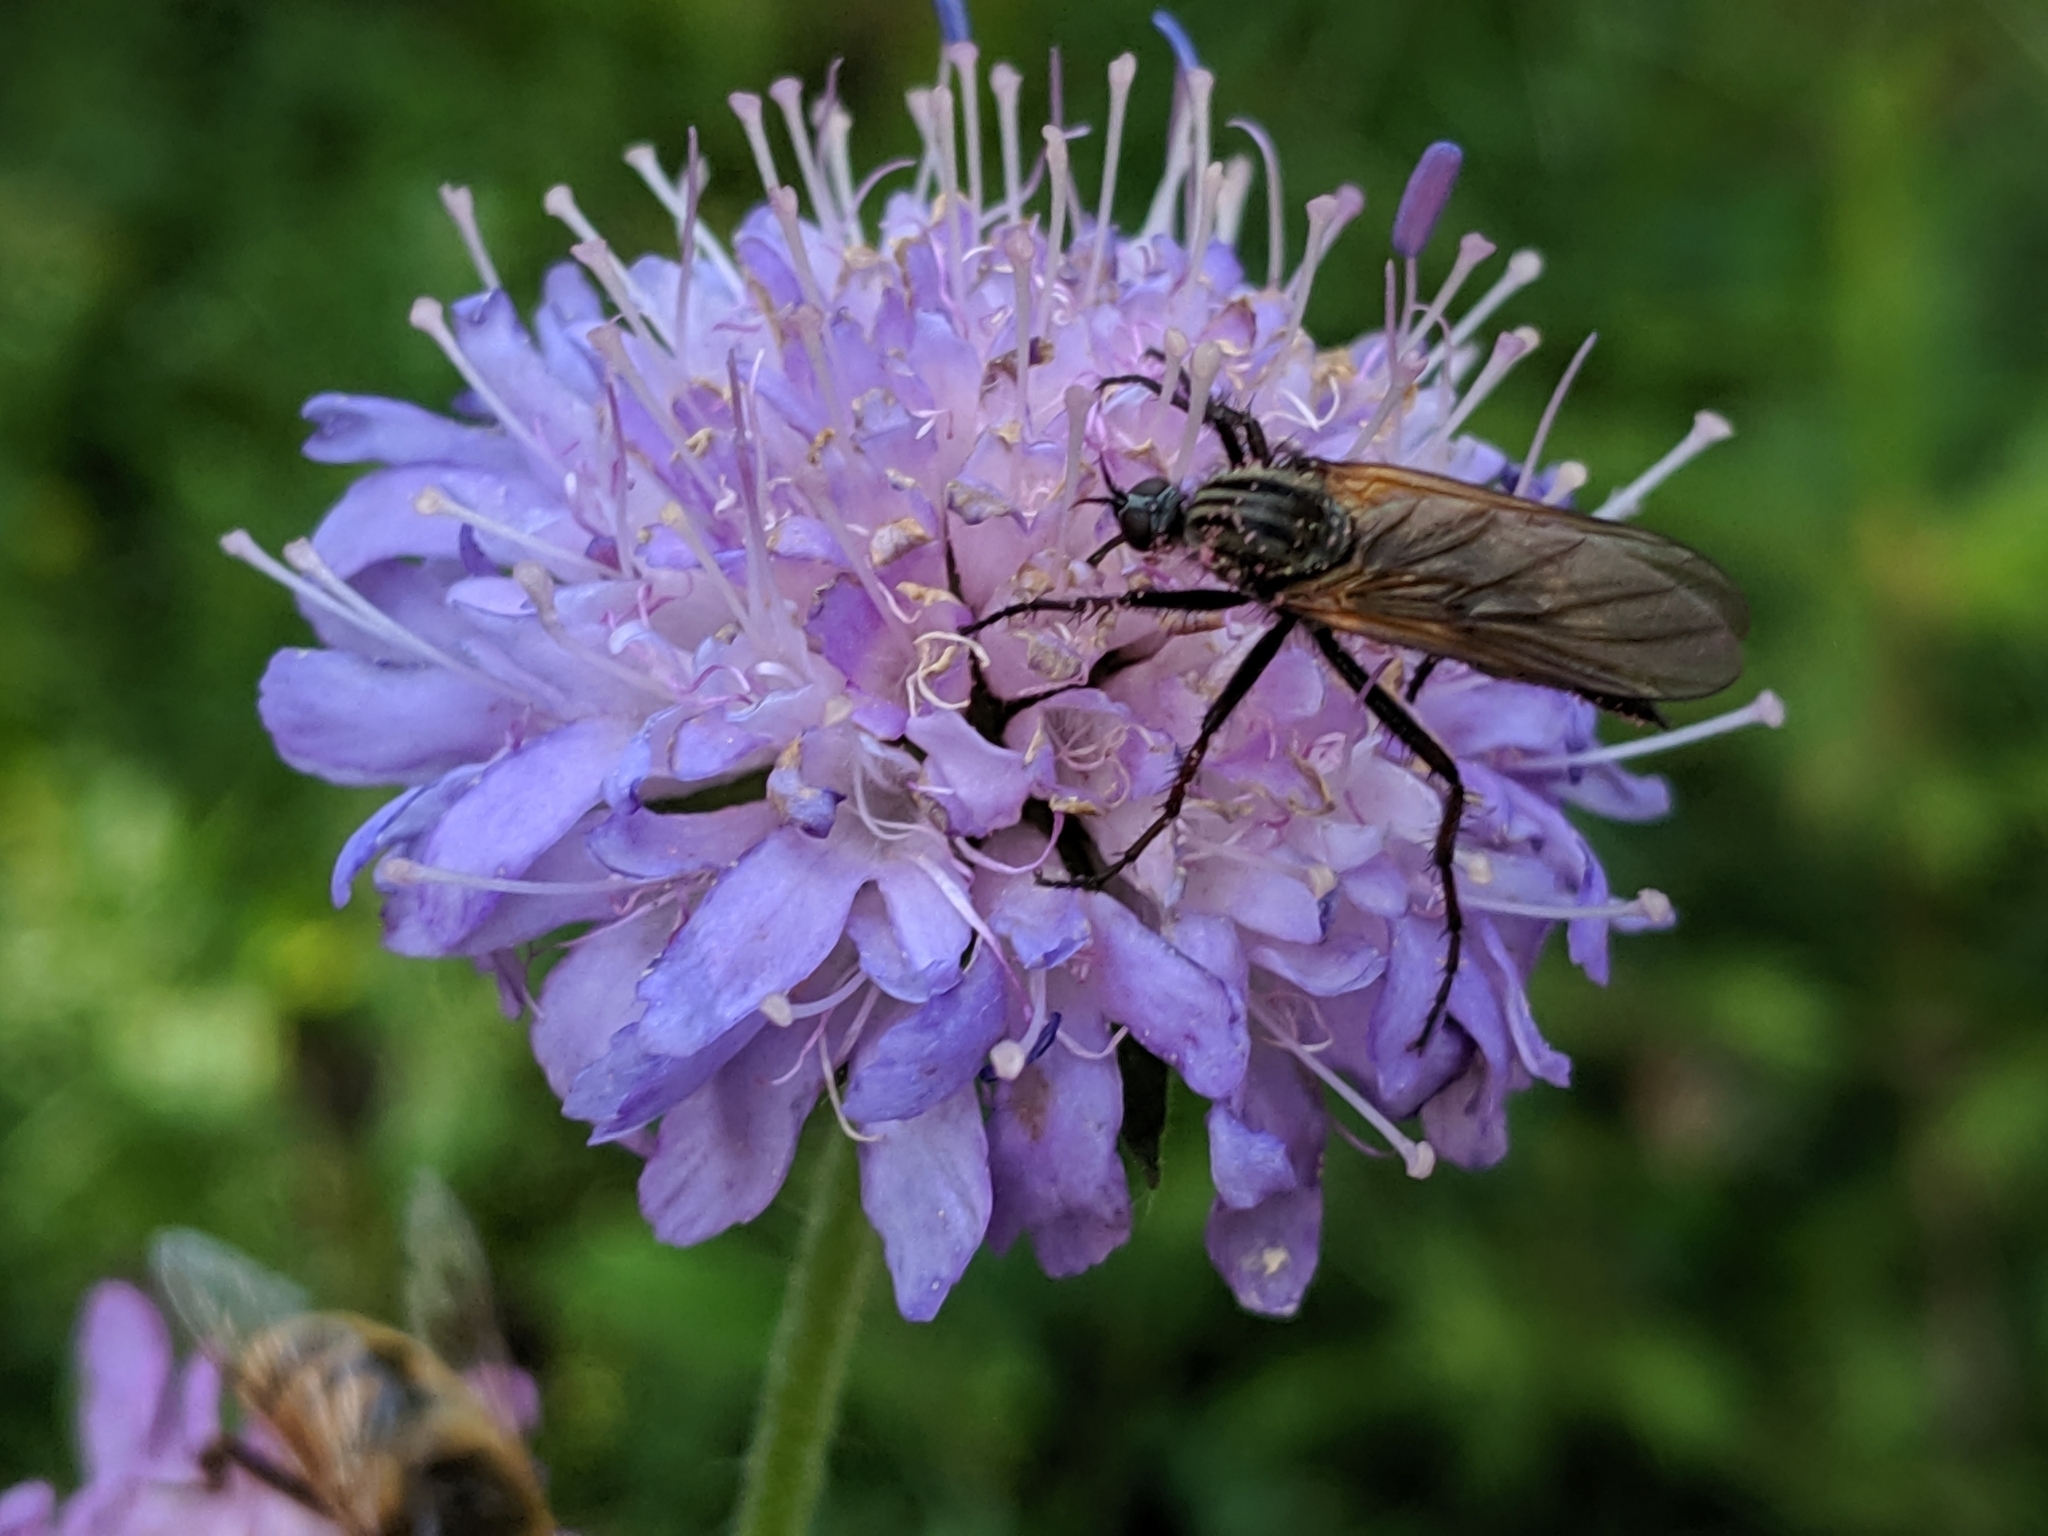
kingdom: Plantae
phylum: Tracheophyta
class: Magnoliopsida
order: Dipsacales
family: Caprifoliaceae
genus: Knautia
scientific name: Knautia arvensis
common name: Field scabiosa
